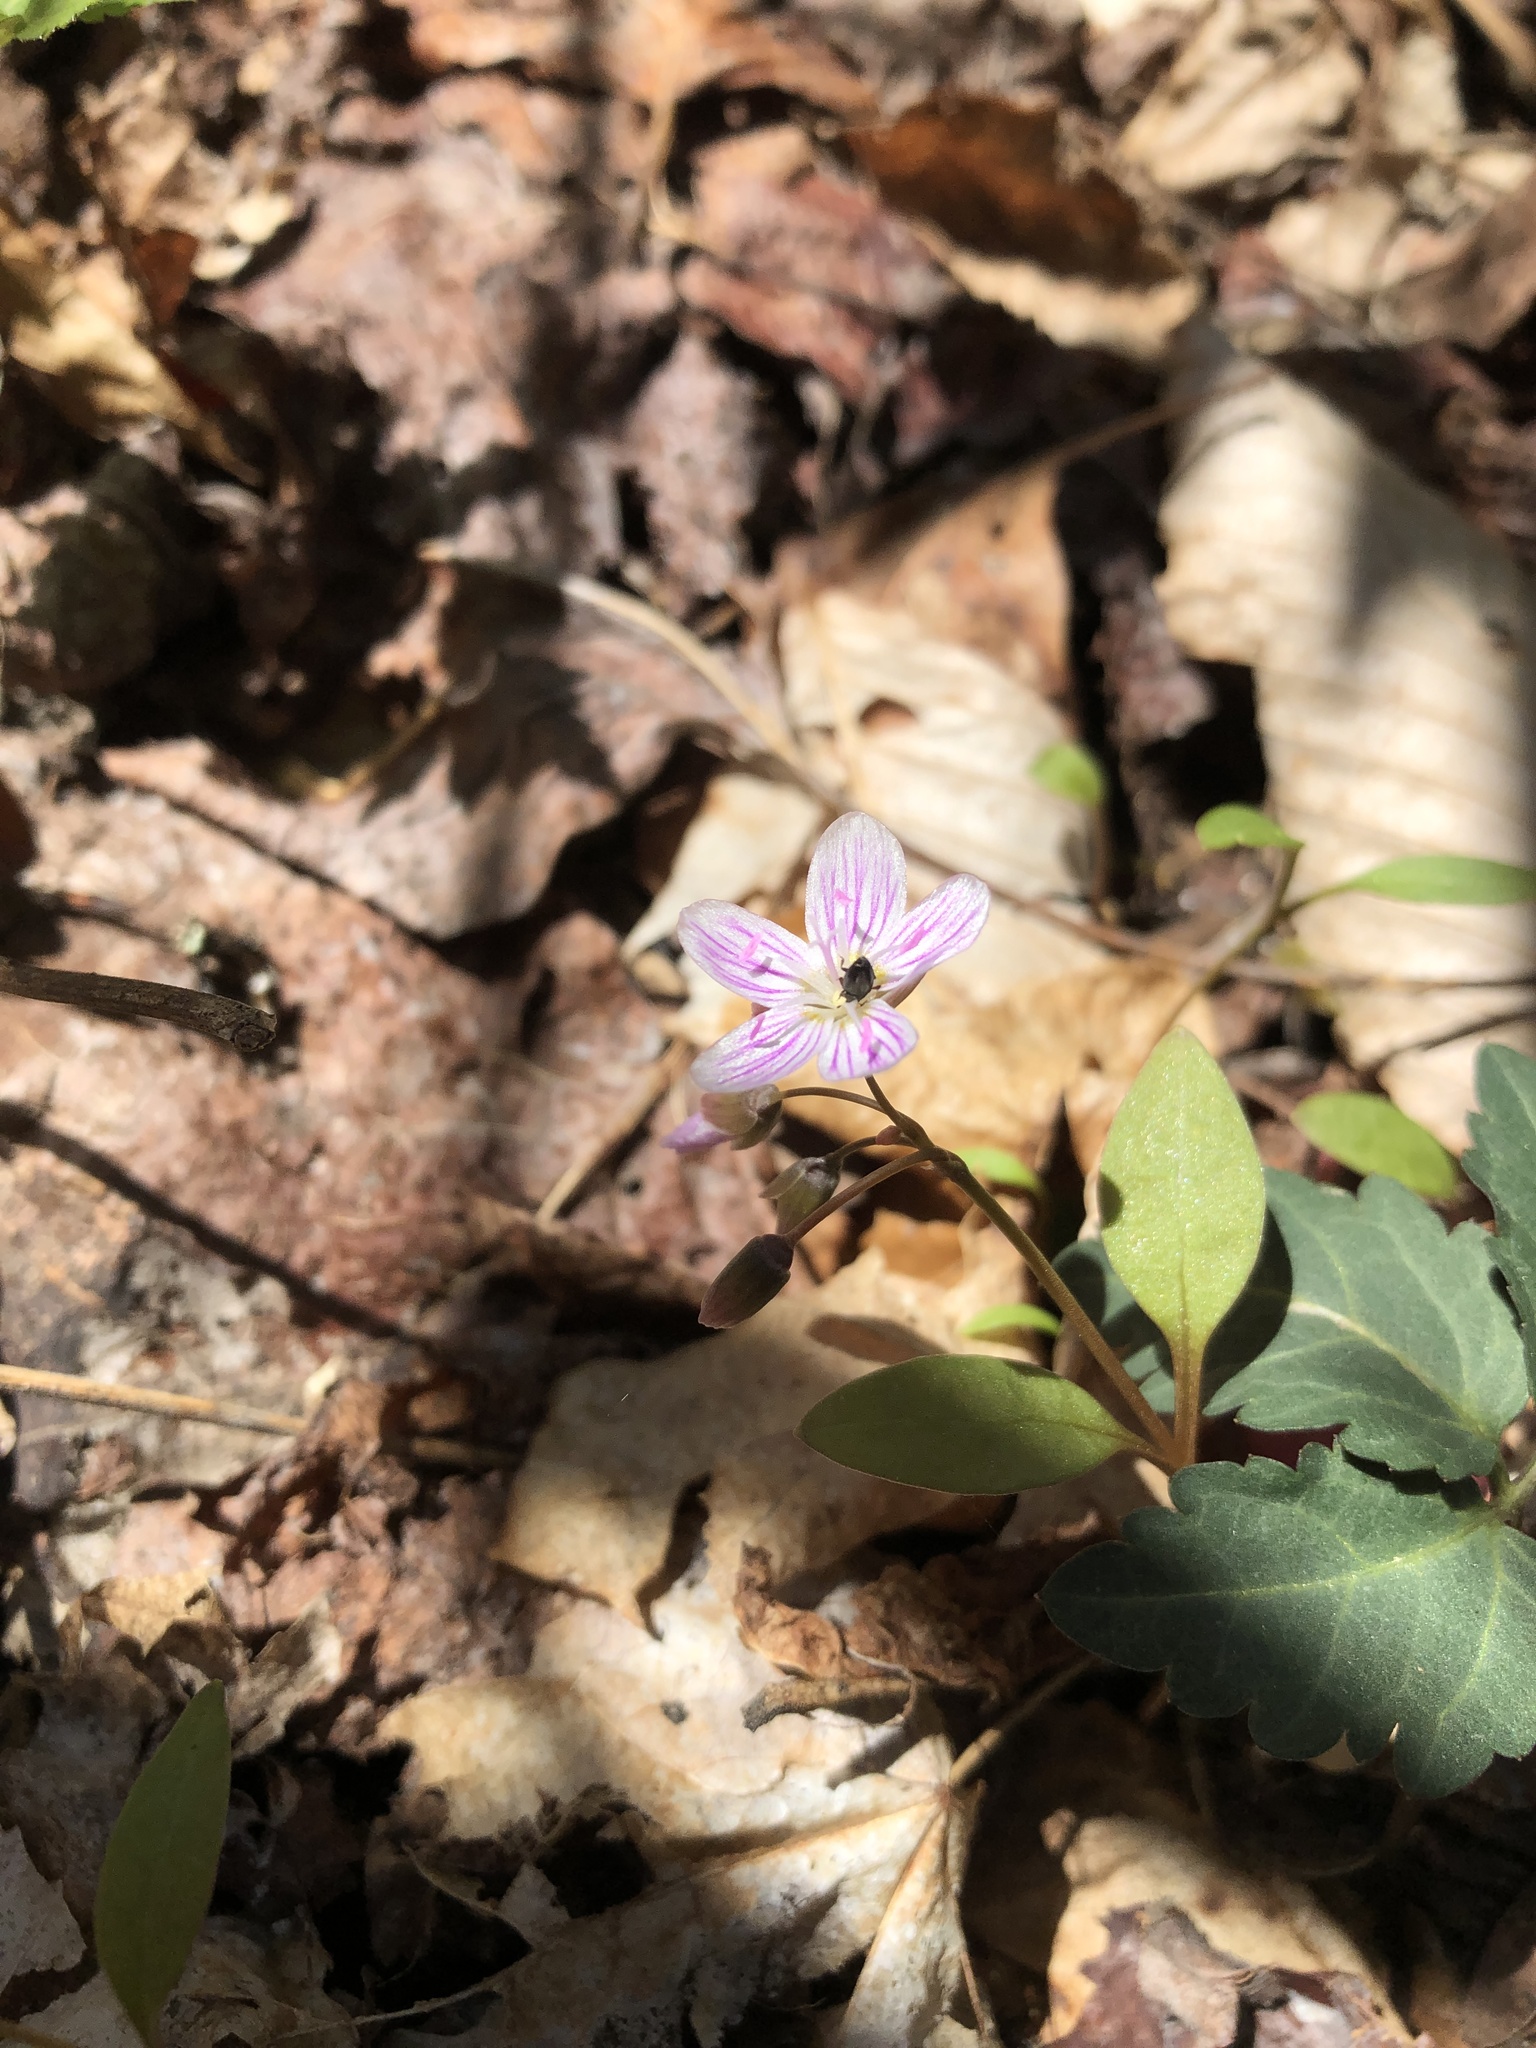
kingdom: Plantae
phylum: Tracheophyta
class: Magnoliopsida
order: Caryophyllales
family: Montiaceae
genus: Claytonia
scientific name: Claytonia caroliniana
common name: Carolina spring beauty
